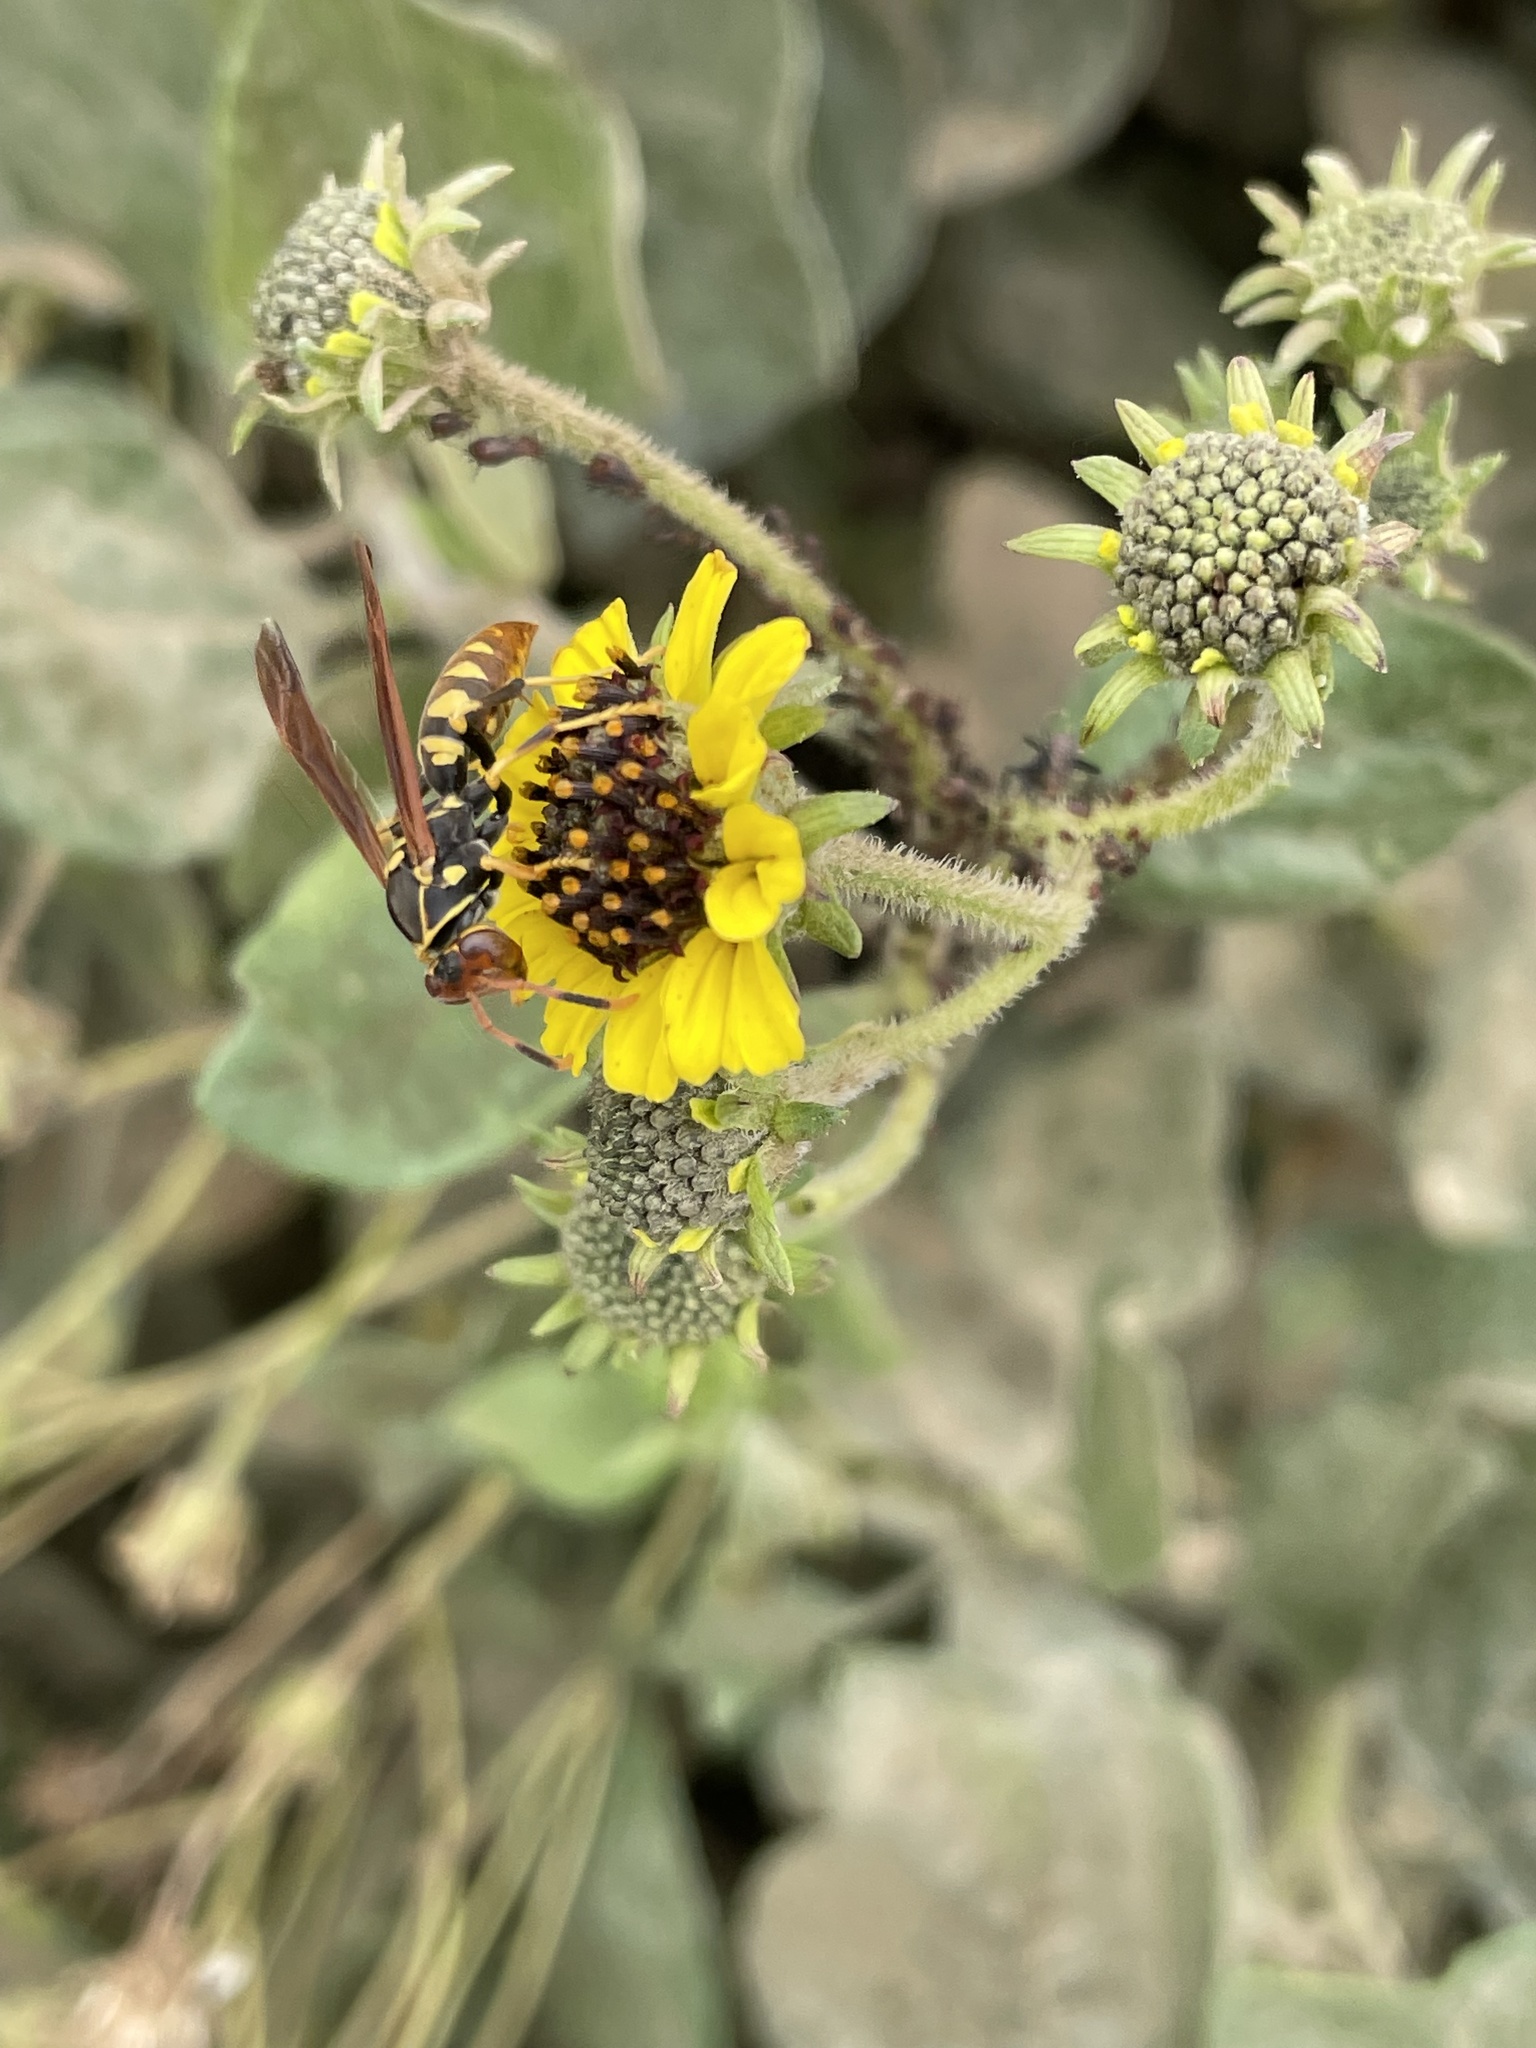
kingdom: Animalia
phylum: Arthropoda
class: Insecta
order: Hymenoptera
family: Eumenidae
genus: Polistes
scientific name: Polistes weyrauchorum
